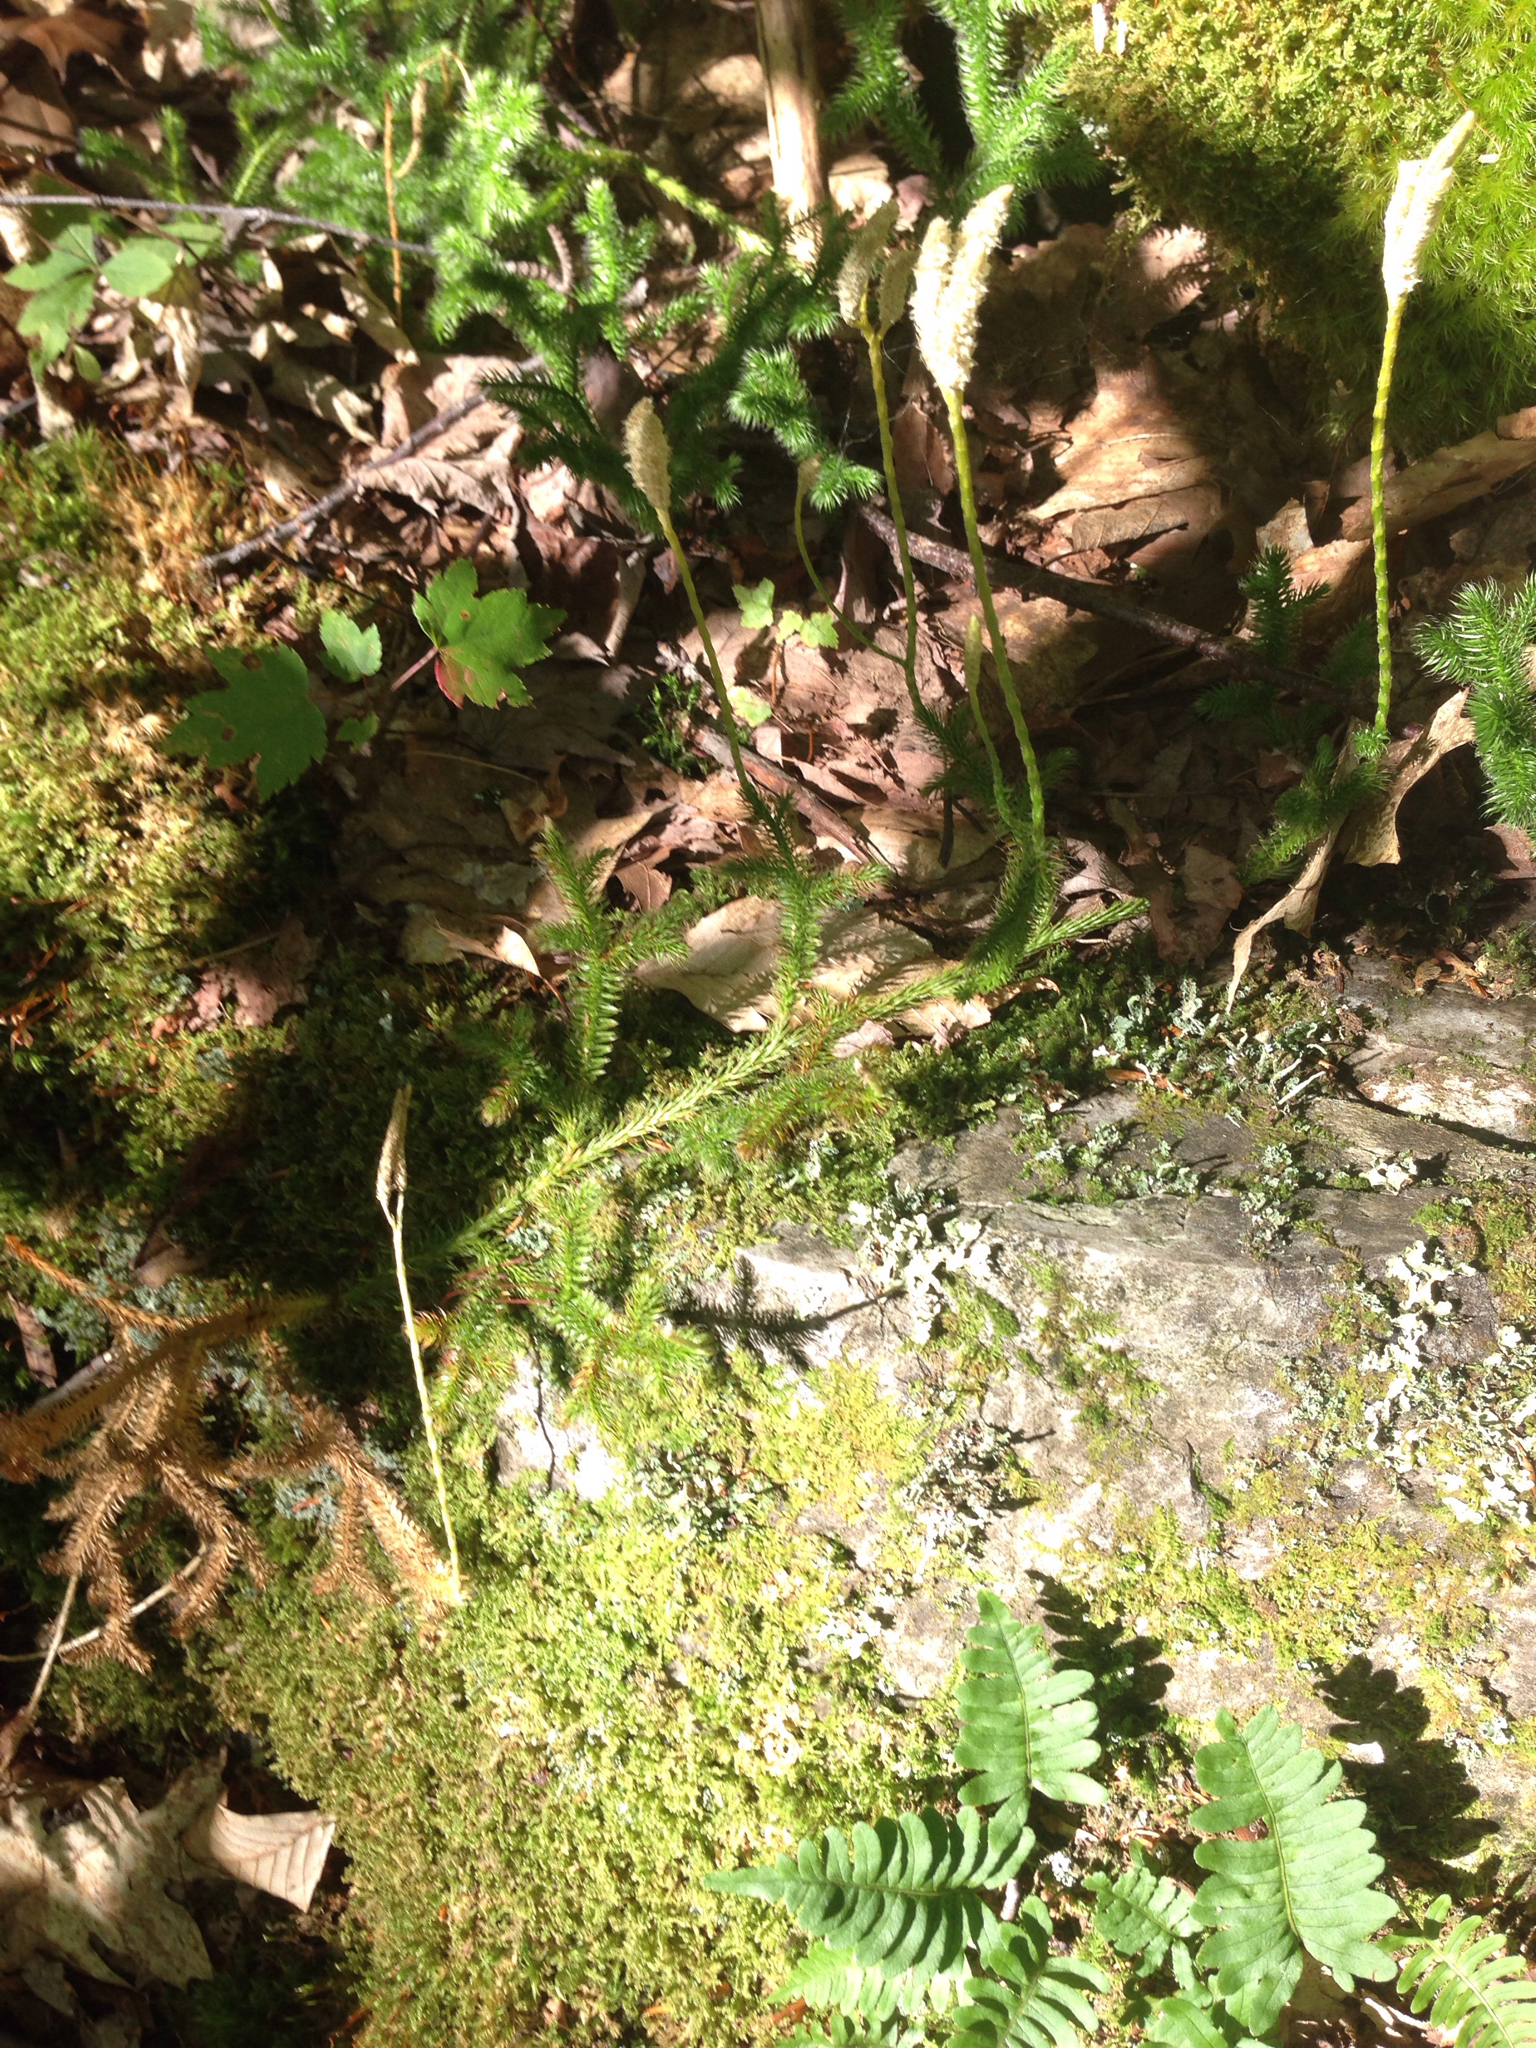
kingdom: Plantae
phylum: Tracheophyta
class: Lycopodiopsida
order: Lycopodiales
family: Lycopodiaceae
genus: Lycopodium
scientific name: Lycopodium clavatum
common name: Stag's-horn clubmoss
